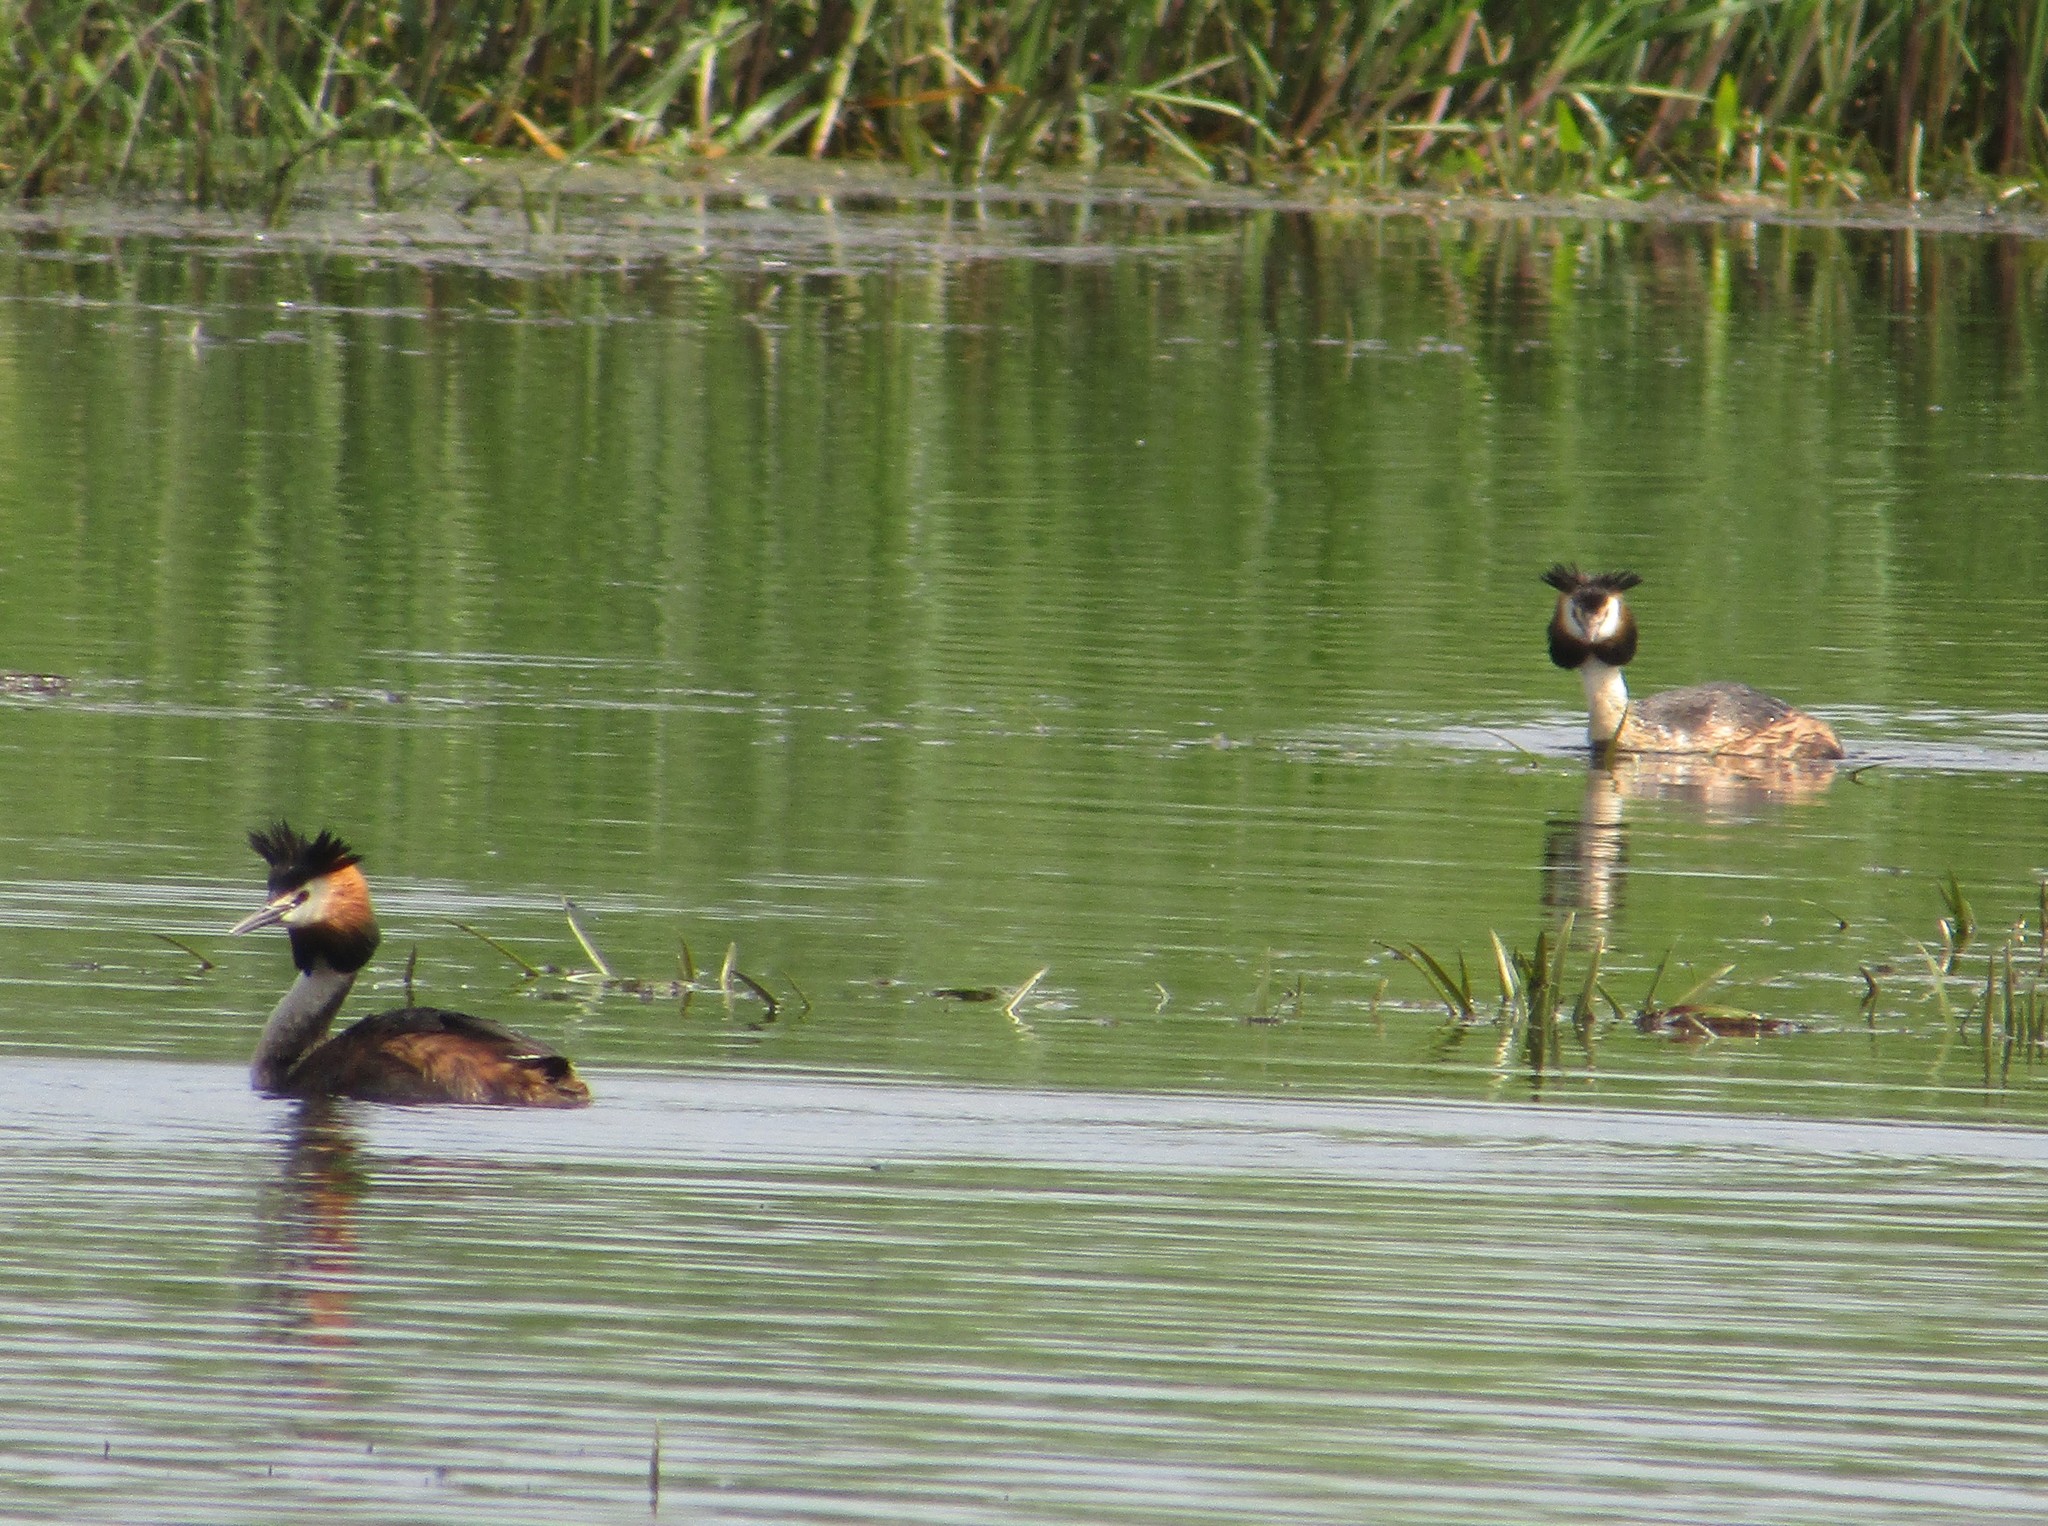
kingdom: Animalia
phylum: Chordata
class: Aves
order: Podicipediformes
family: Podicipedidae
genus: Podiceps
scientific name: Podiceps cristatus
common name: Great crested grebe
